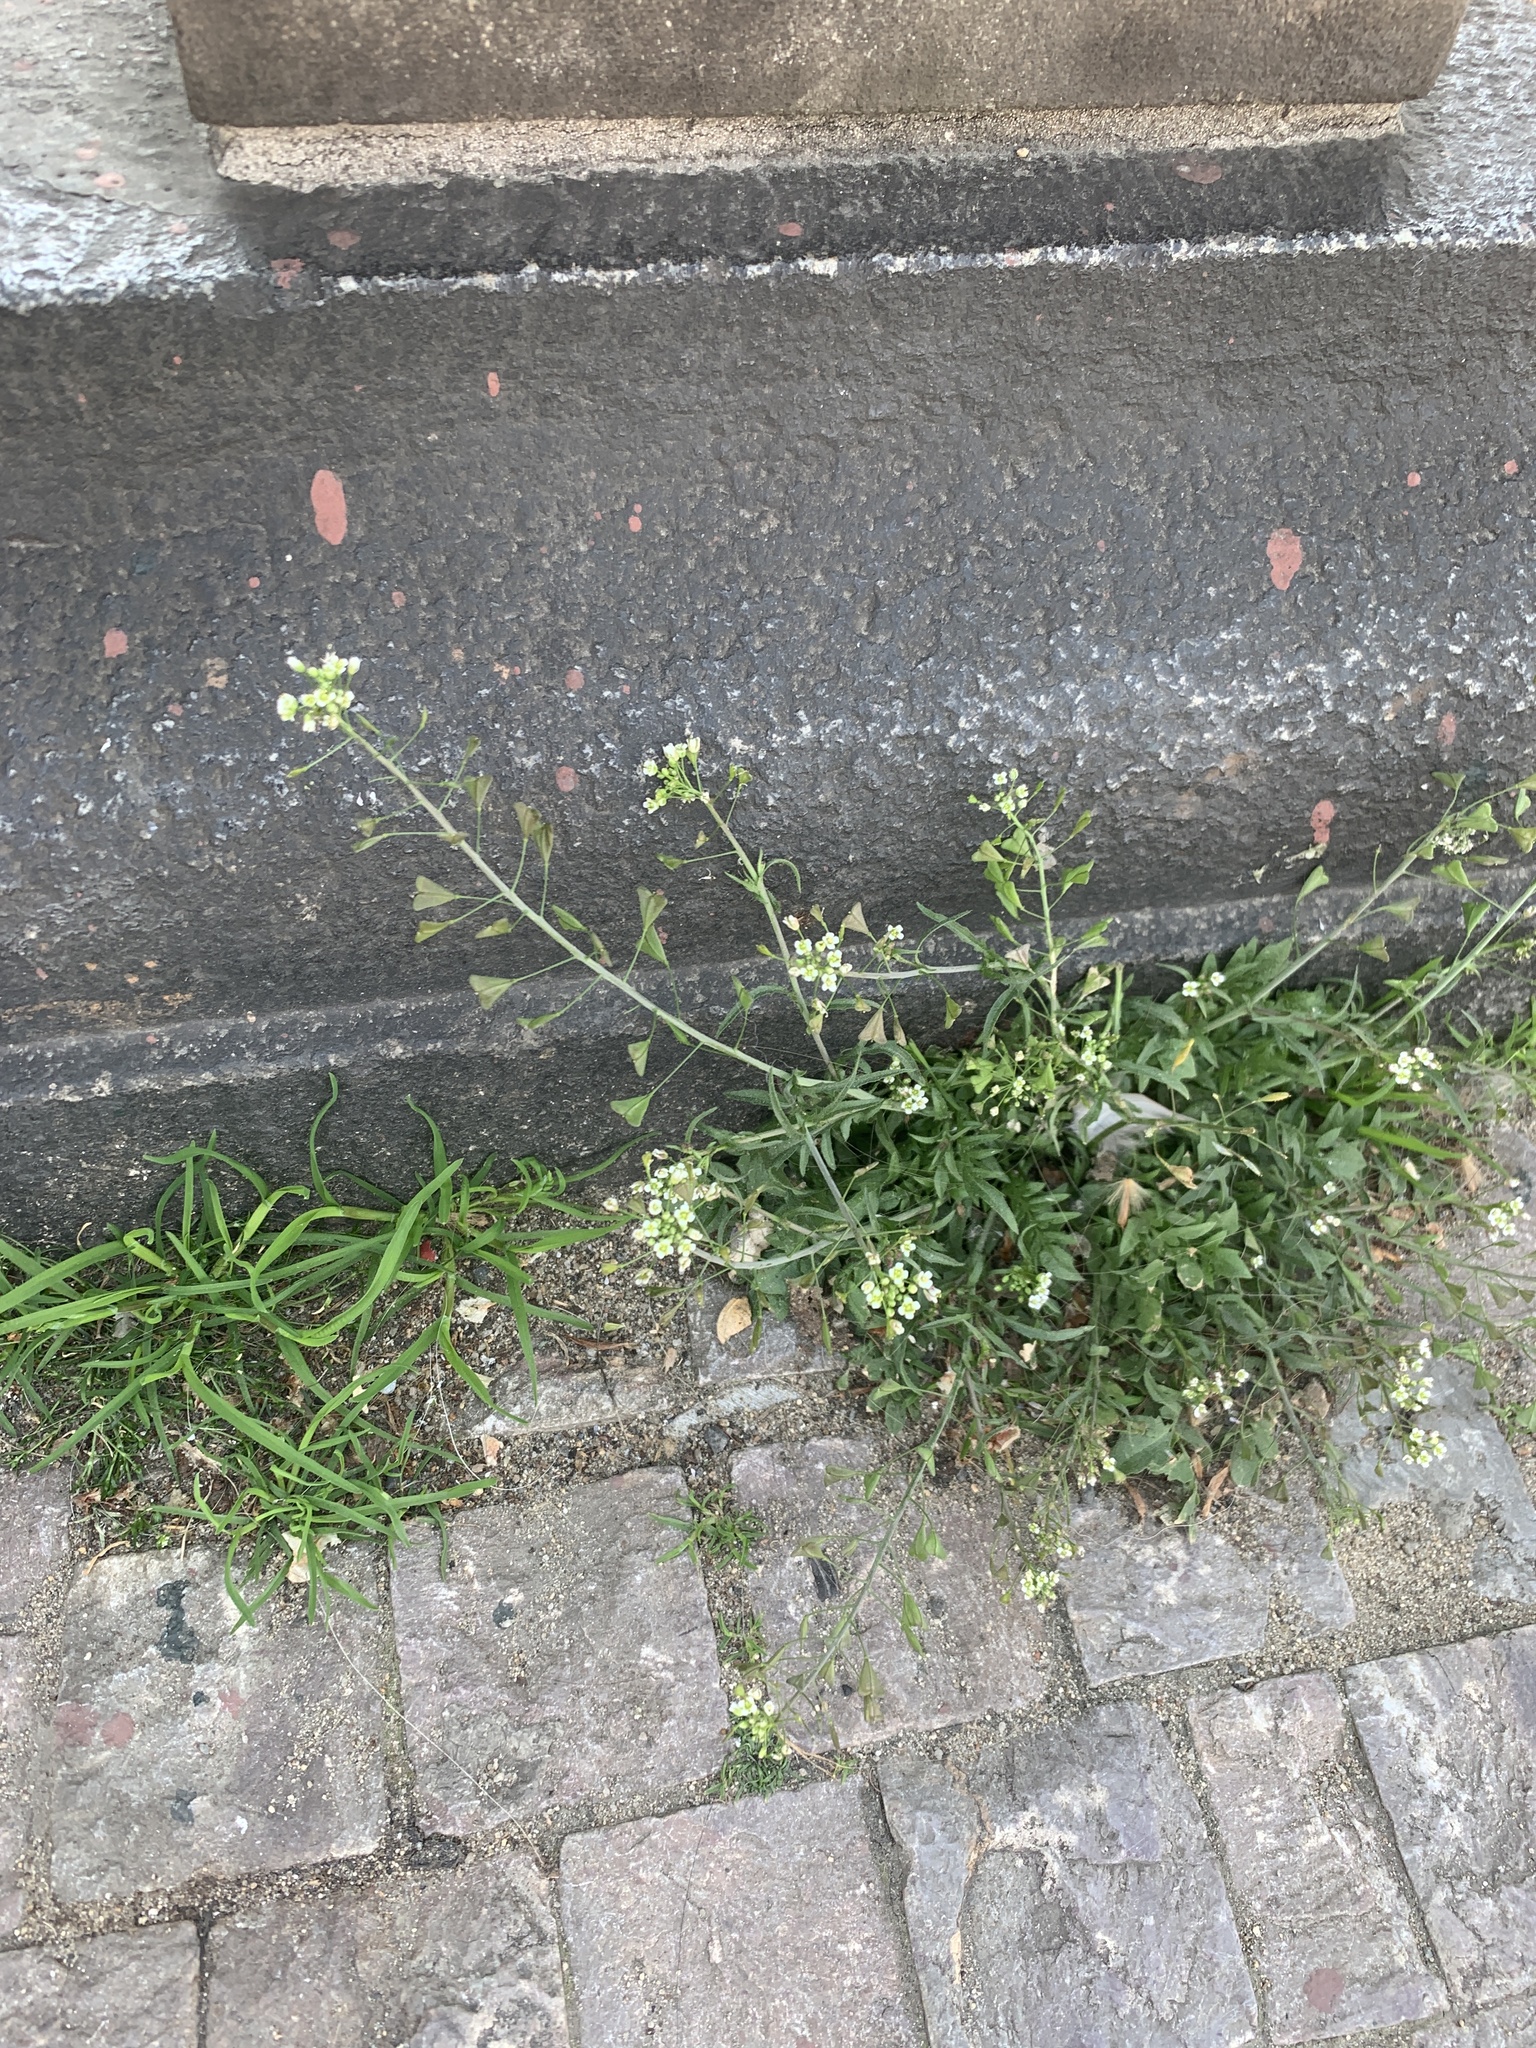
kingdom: Plantae
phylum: Tracheophyta
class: Magnoliopsida
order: Brassicales
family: Brassicaceae
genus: Capsella
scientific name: Capsella bursa-pastoris
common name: Shepherd's purse
